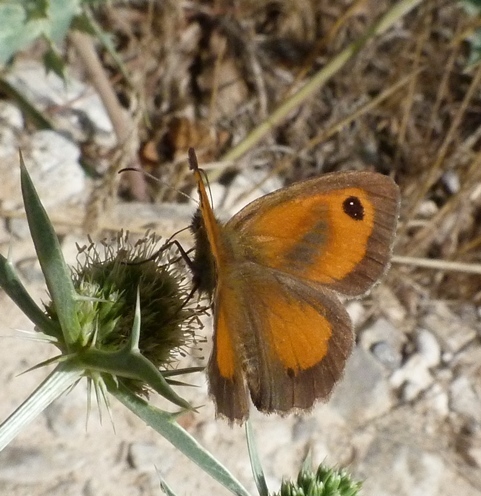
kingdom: Animalia
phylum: Arthropoda
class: Insecta
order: Lepidoptera
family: Nymphalidae
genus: Pyronia
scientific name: Pyronia tithonus
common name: Gatekeeper
